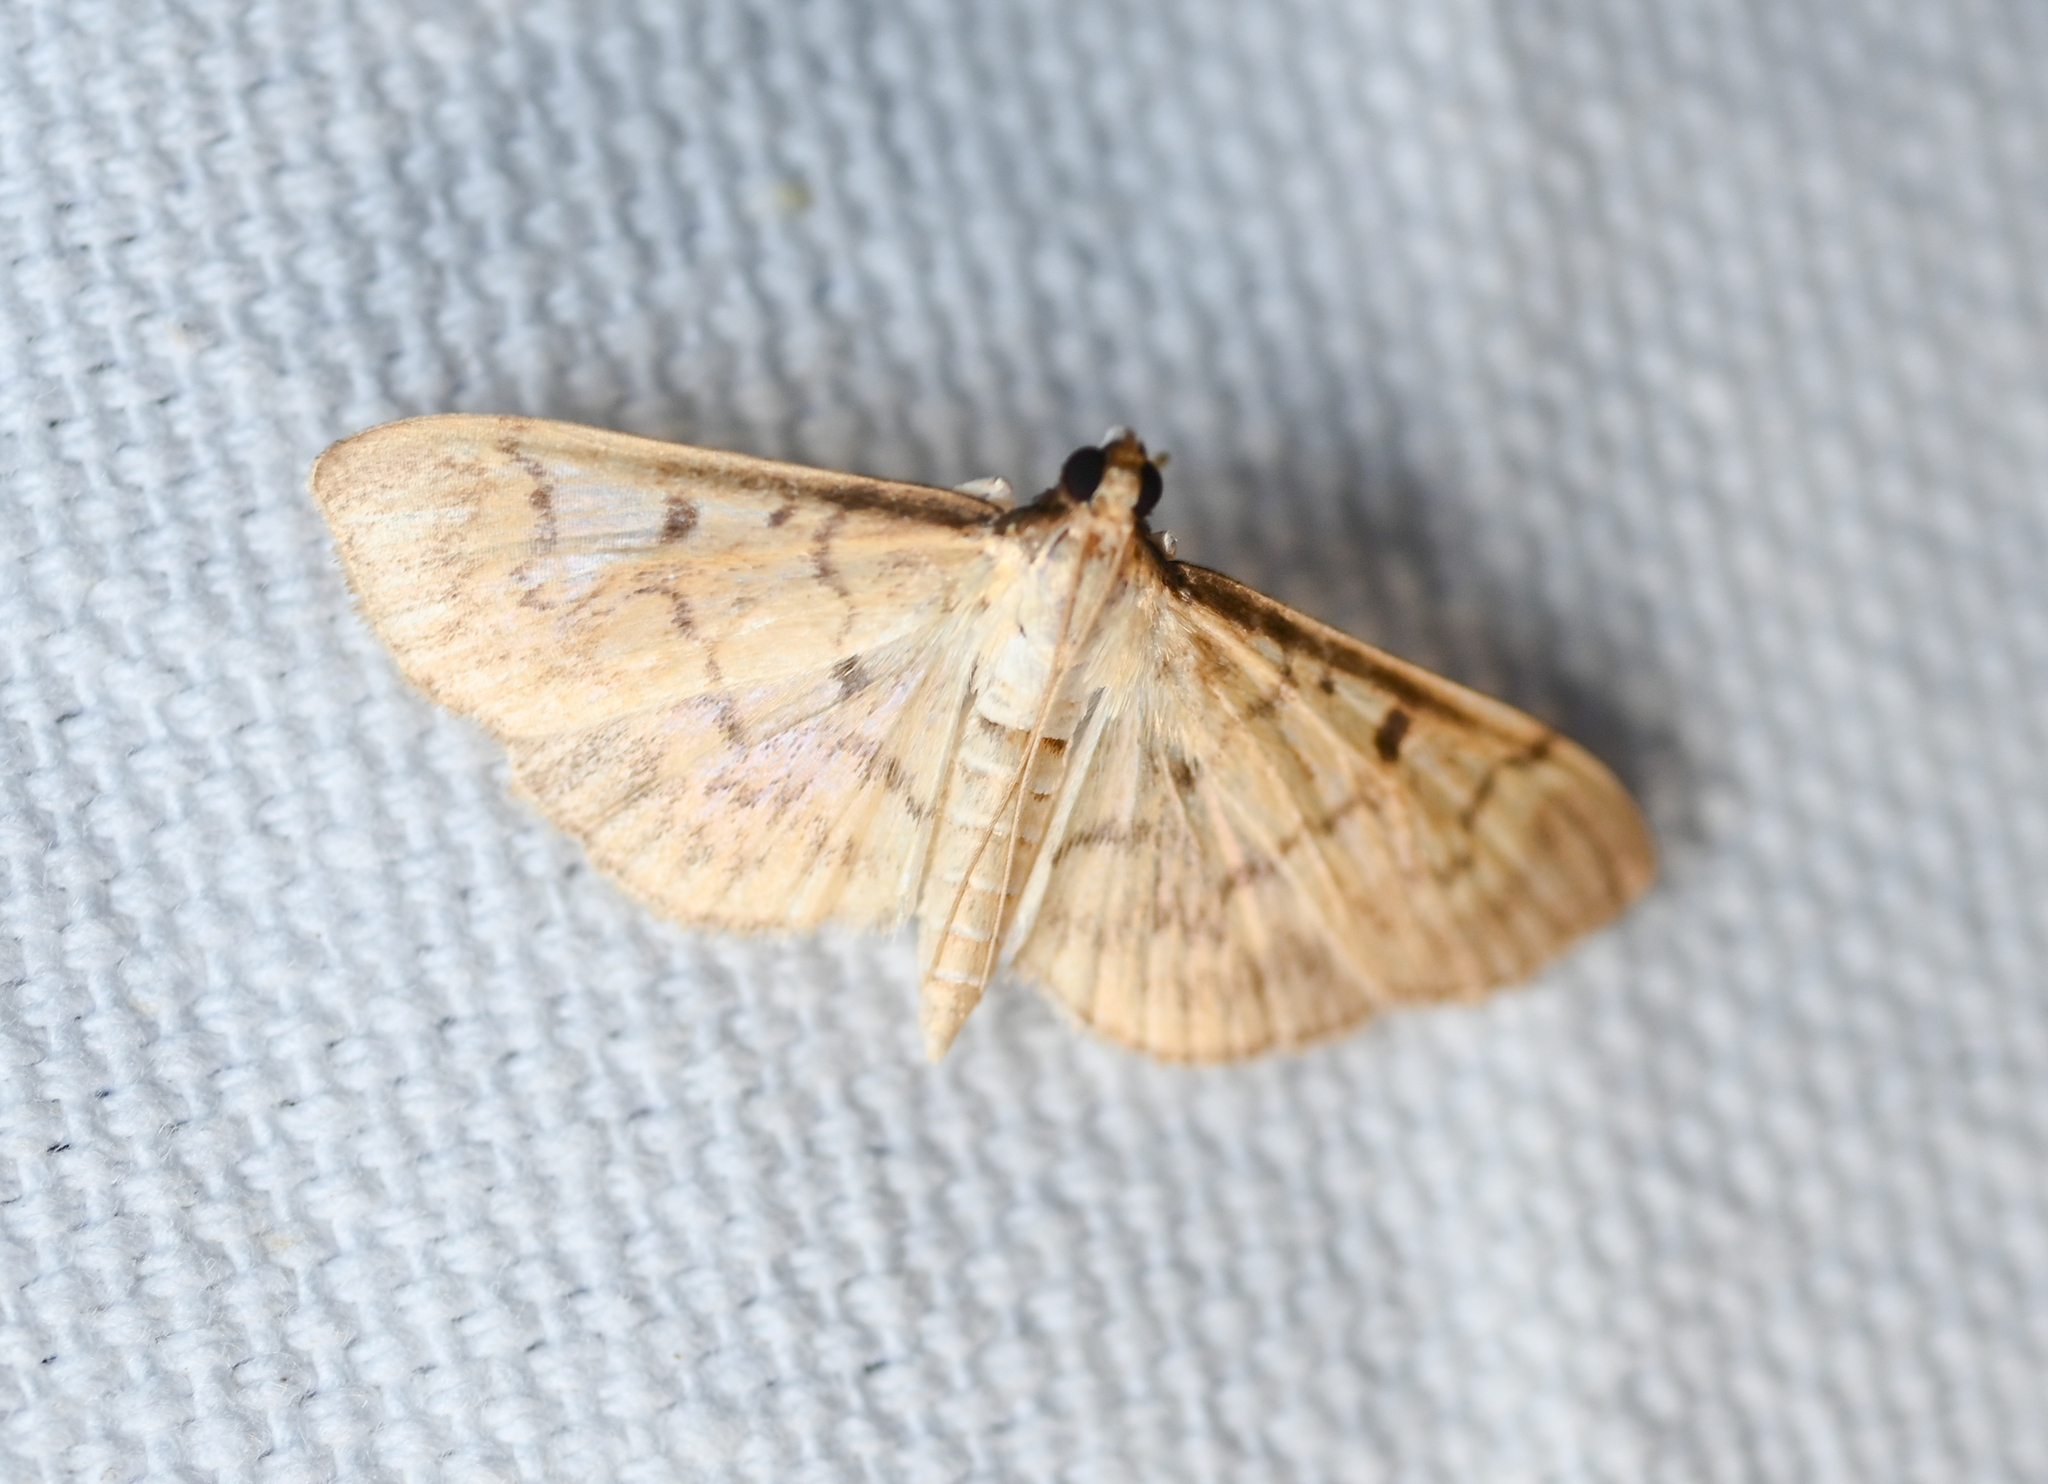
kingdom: Animalia
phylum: Arthropoda
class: Insecta
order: Lepidoptera
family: Crambidae
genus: Herpetogramma
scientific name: Herpetogramma bipunctalis
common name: Southern beet webworm
